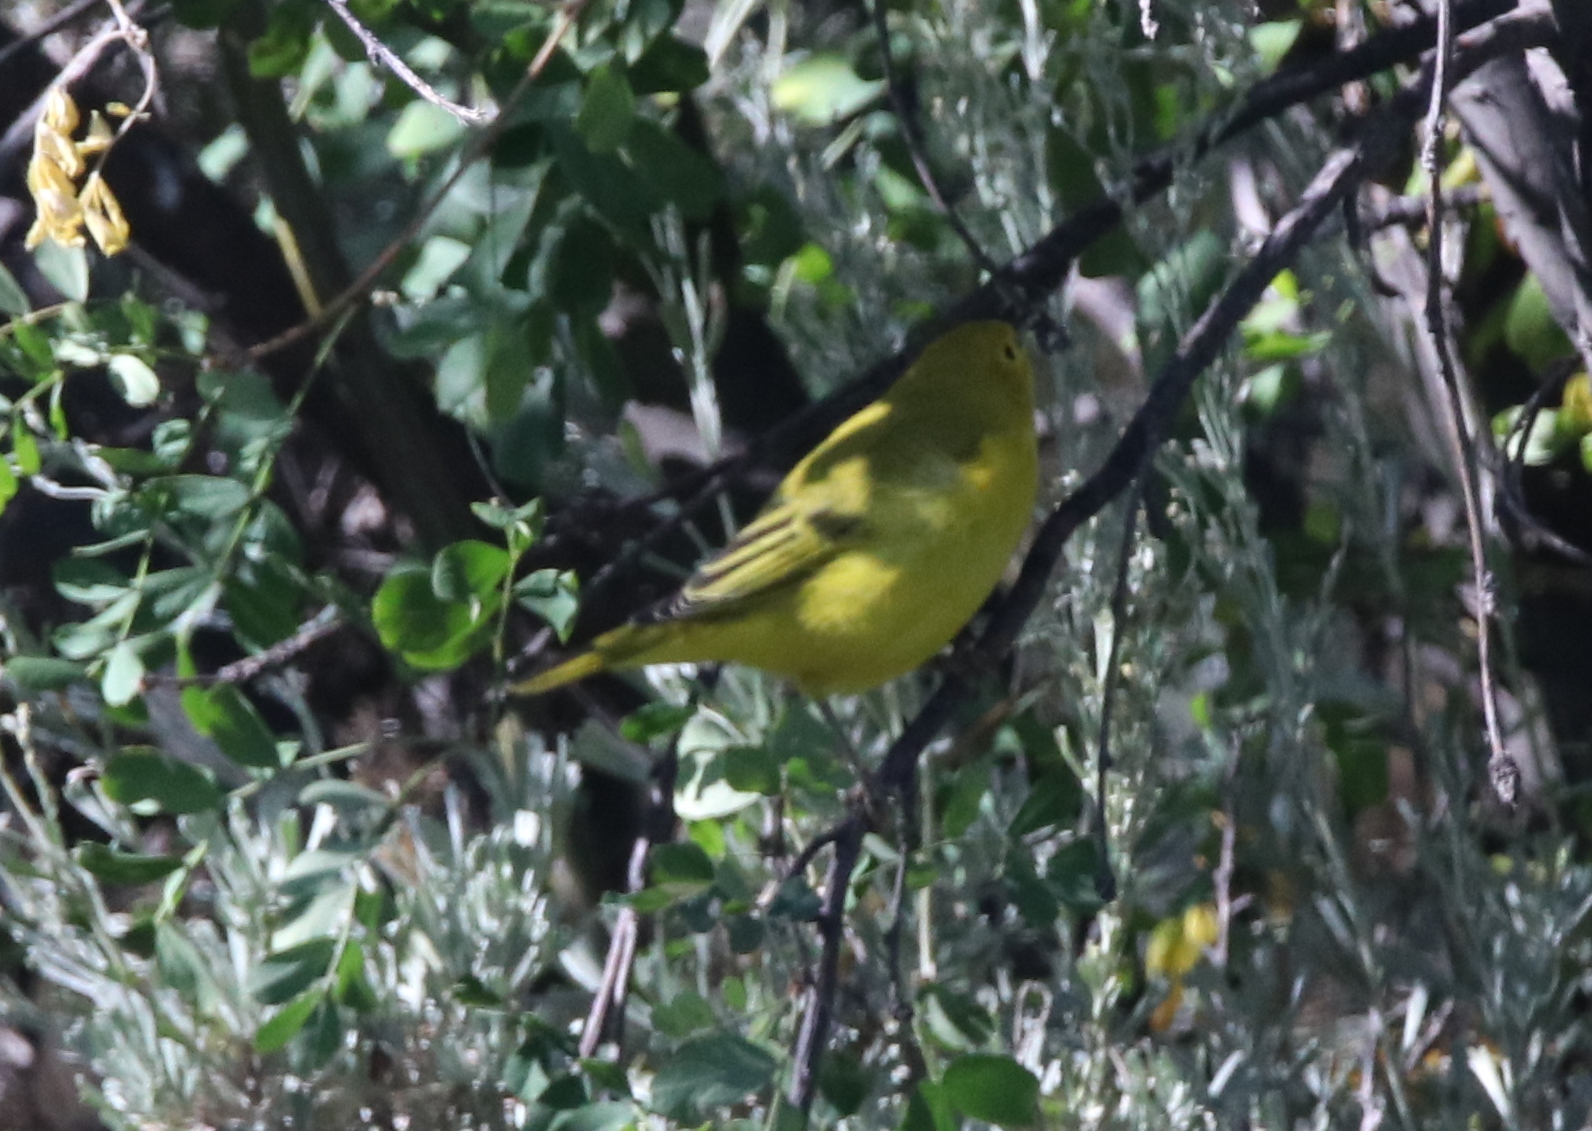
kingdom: Animalia
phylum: Chordata
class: Aves
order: Passeriformes
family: Parulidae
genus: Setophaga
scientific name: Setophaga petechia
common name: Yellow warbler
